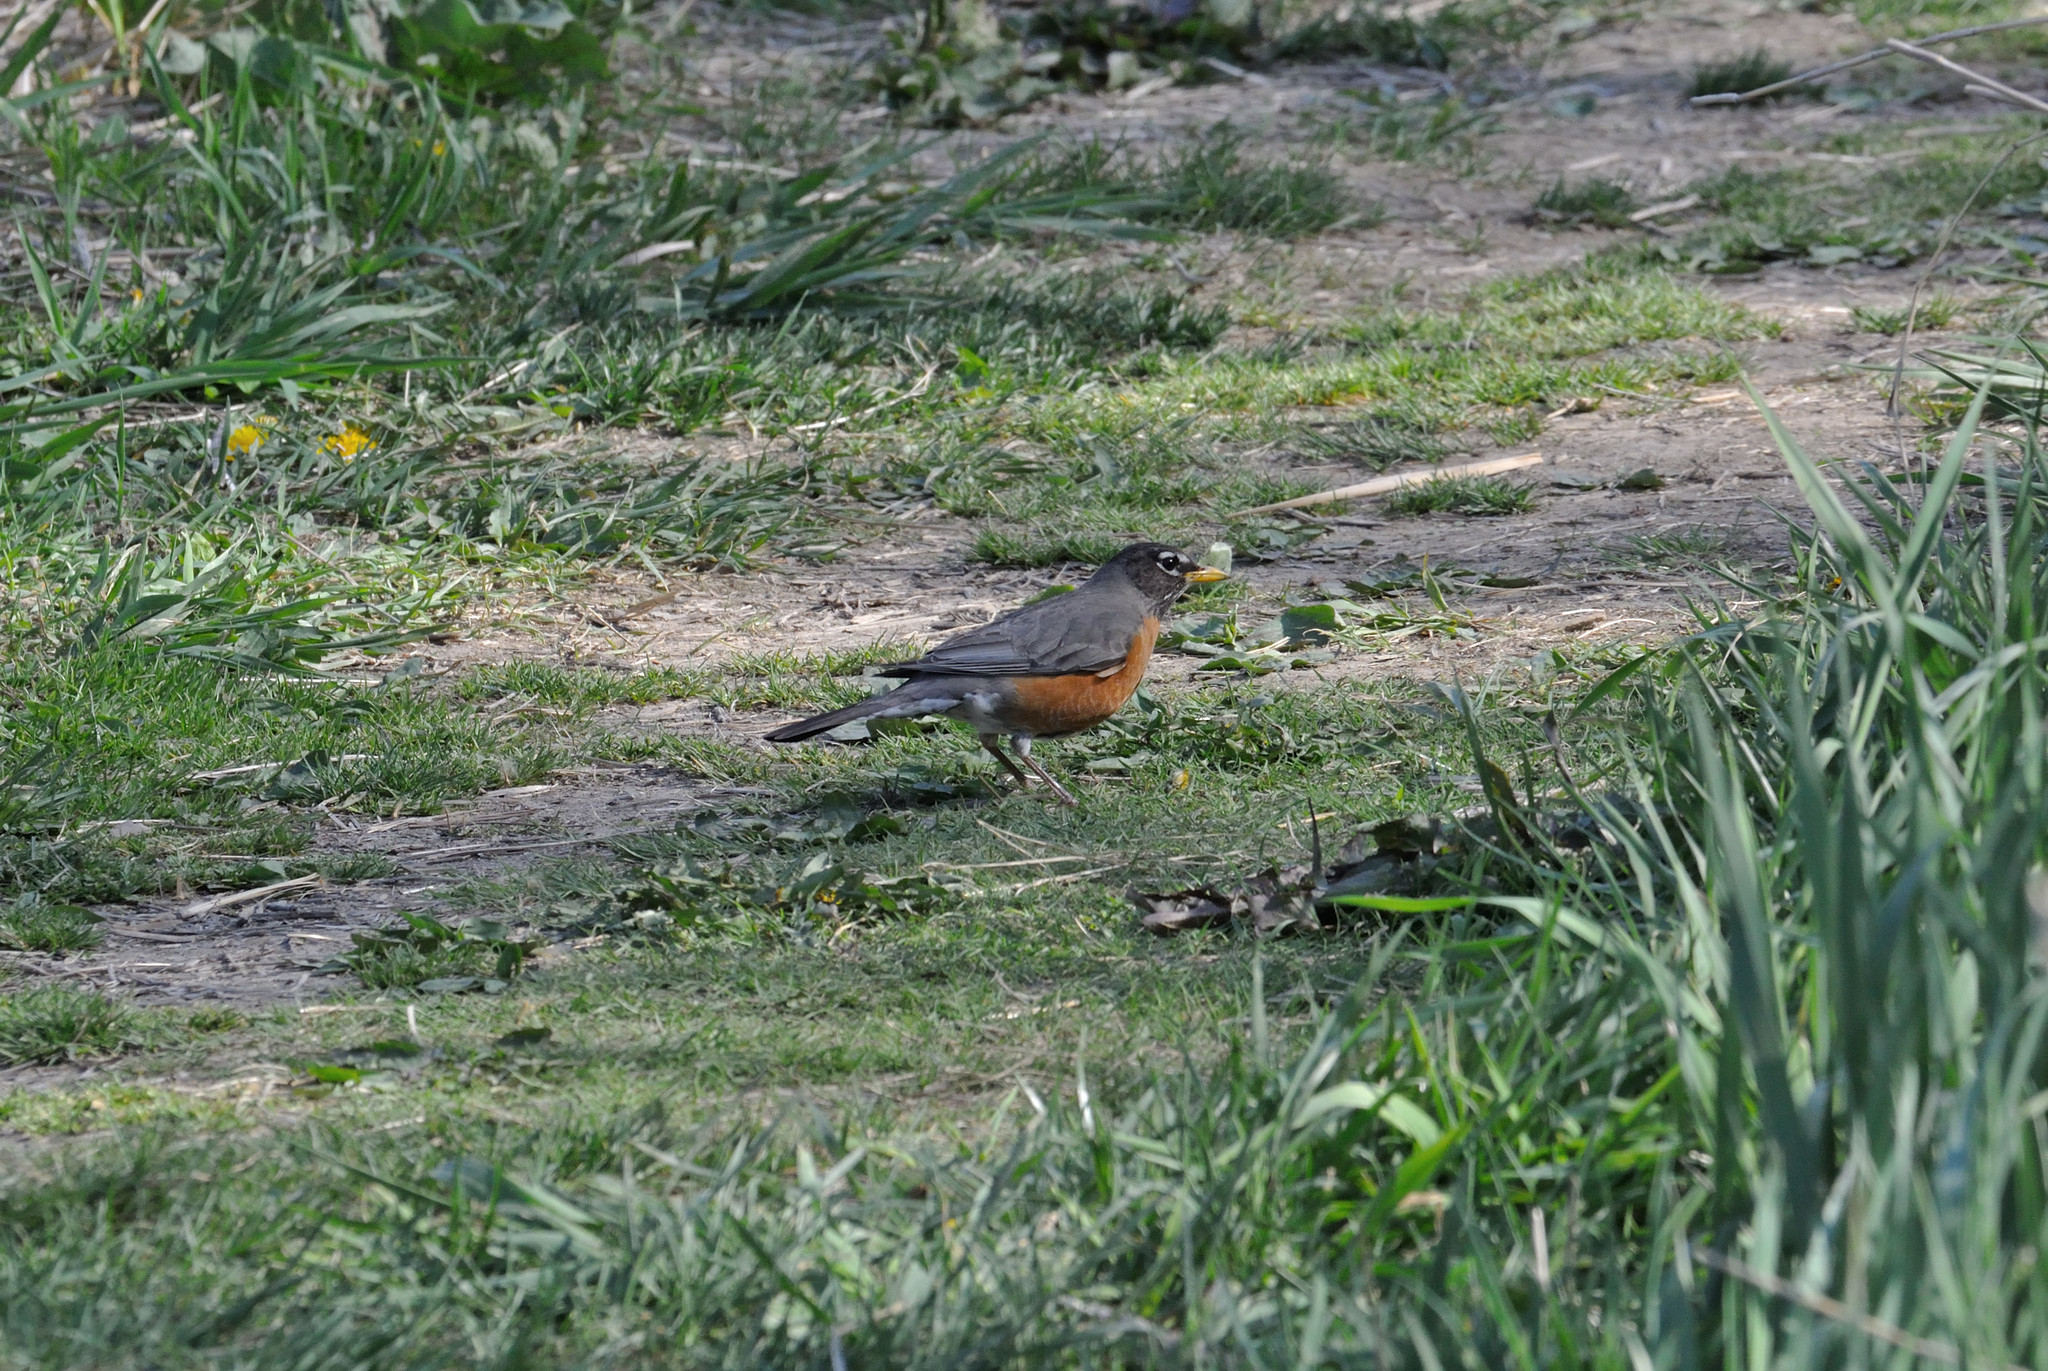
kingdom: Animalia
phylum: Chordata
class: Aves
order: Passeriformes
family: Turdidae
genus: Turdus
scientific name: Turdus migratorius
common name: American robin
